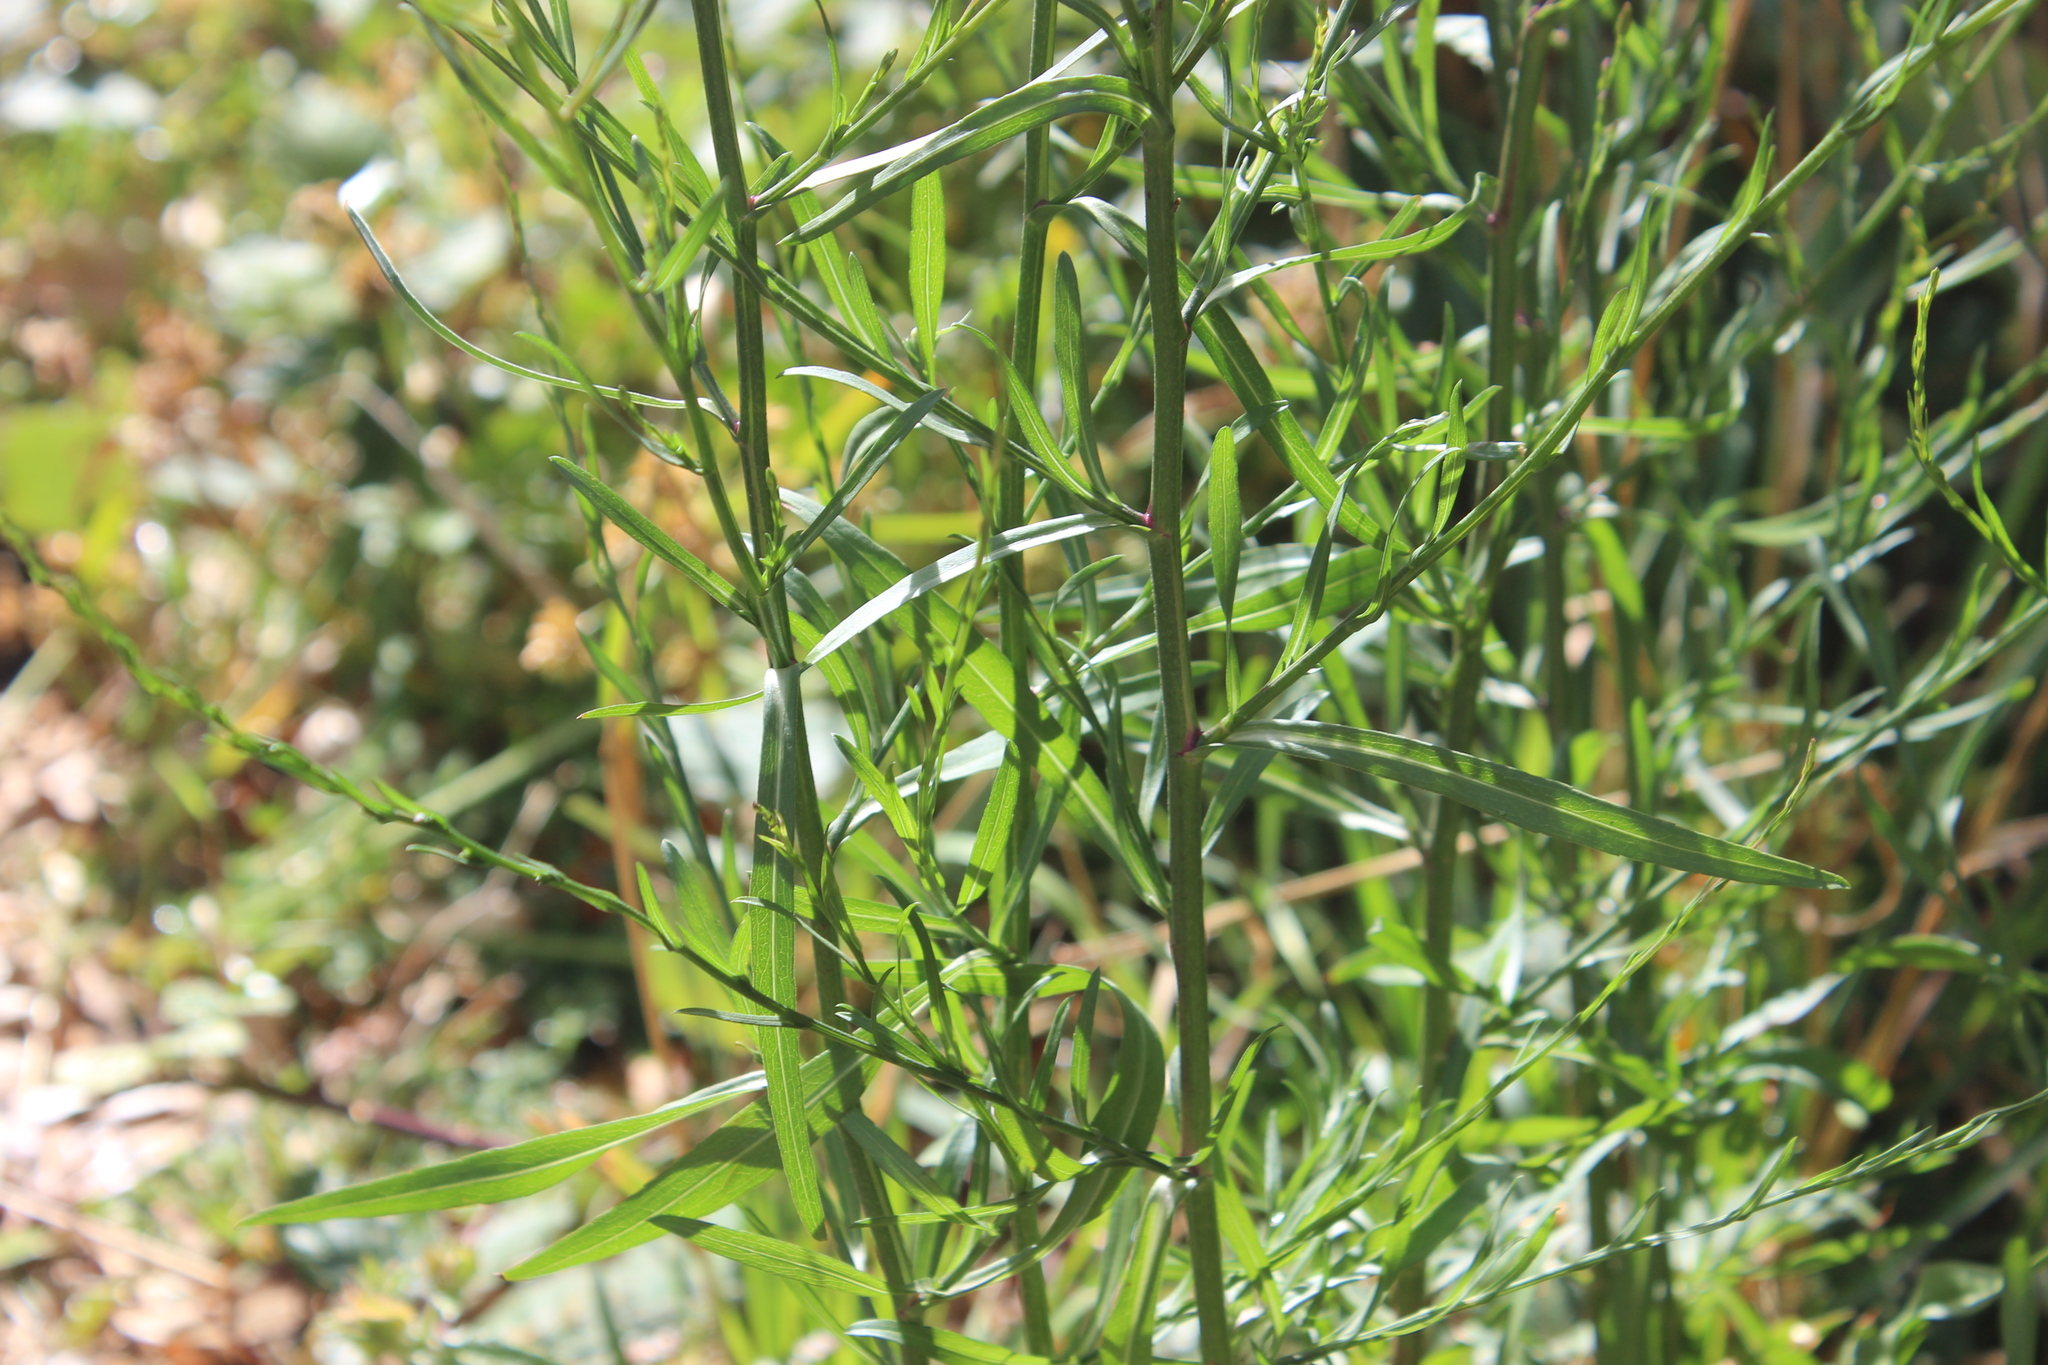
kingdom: Plantae
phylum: Tracheophyta
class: Magnoliopsida
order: Asterales
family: Asteraceae
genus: Symphyotrichum
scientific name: Symphyotrichum subulatum
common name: Annual saltmarsh aster
